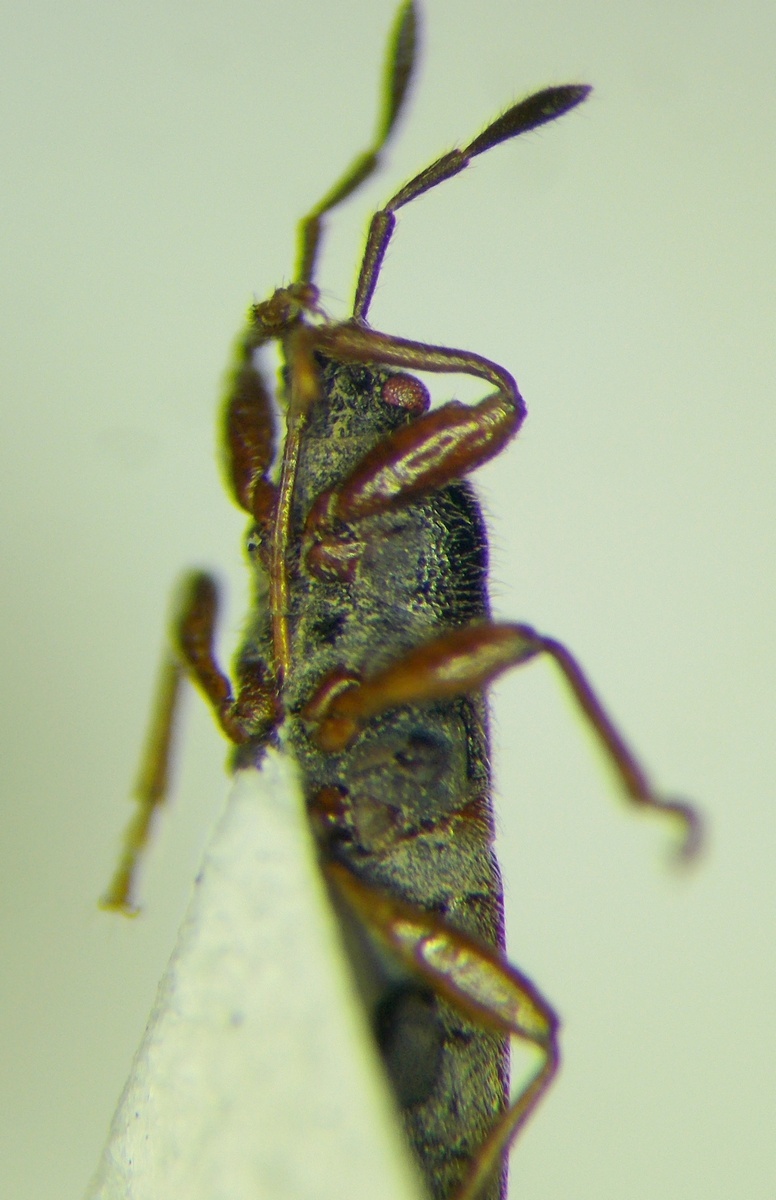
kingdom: Animalia
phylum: Arthropoda
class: Insecta
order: Hemiptera
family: Blissidae
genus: Dimorphopterus
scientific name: Dimorphopterus blissoides
